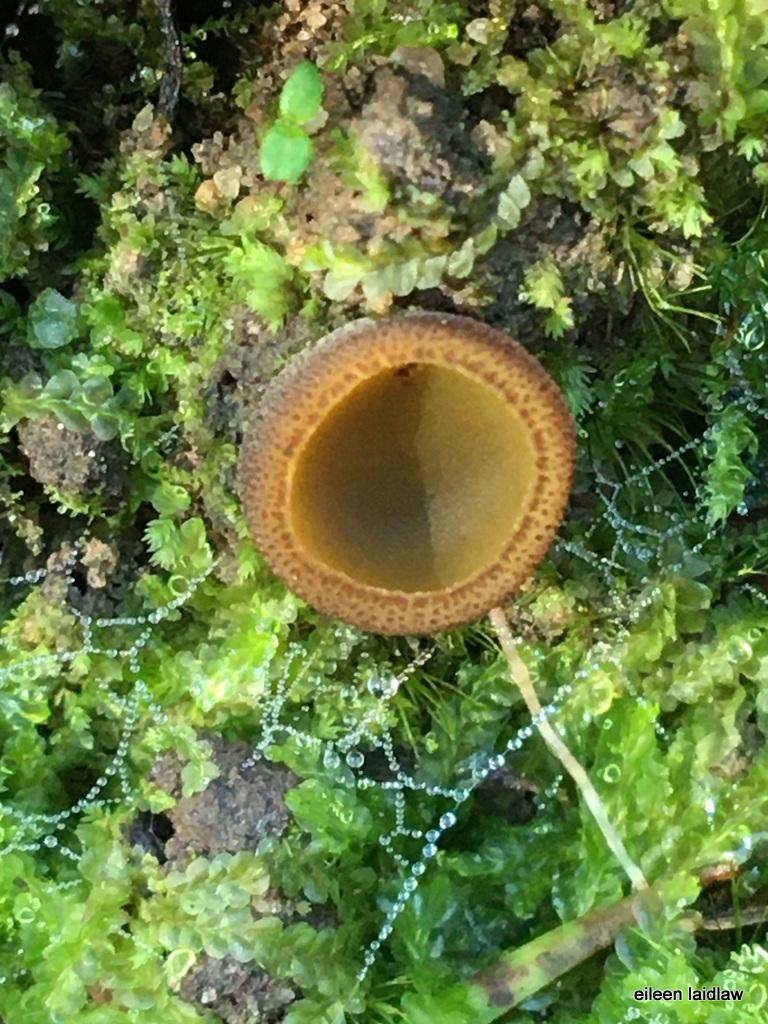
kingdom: Fungi
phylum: Ascomycota
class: Pezizomycetes
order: Pezizales
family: Pyronemataceae
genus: Aleurina
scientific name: Aleurina ferruginea
